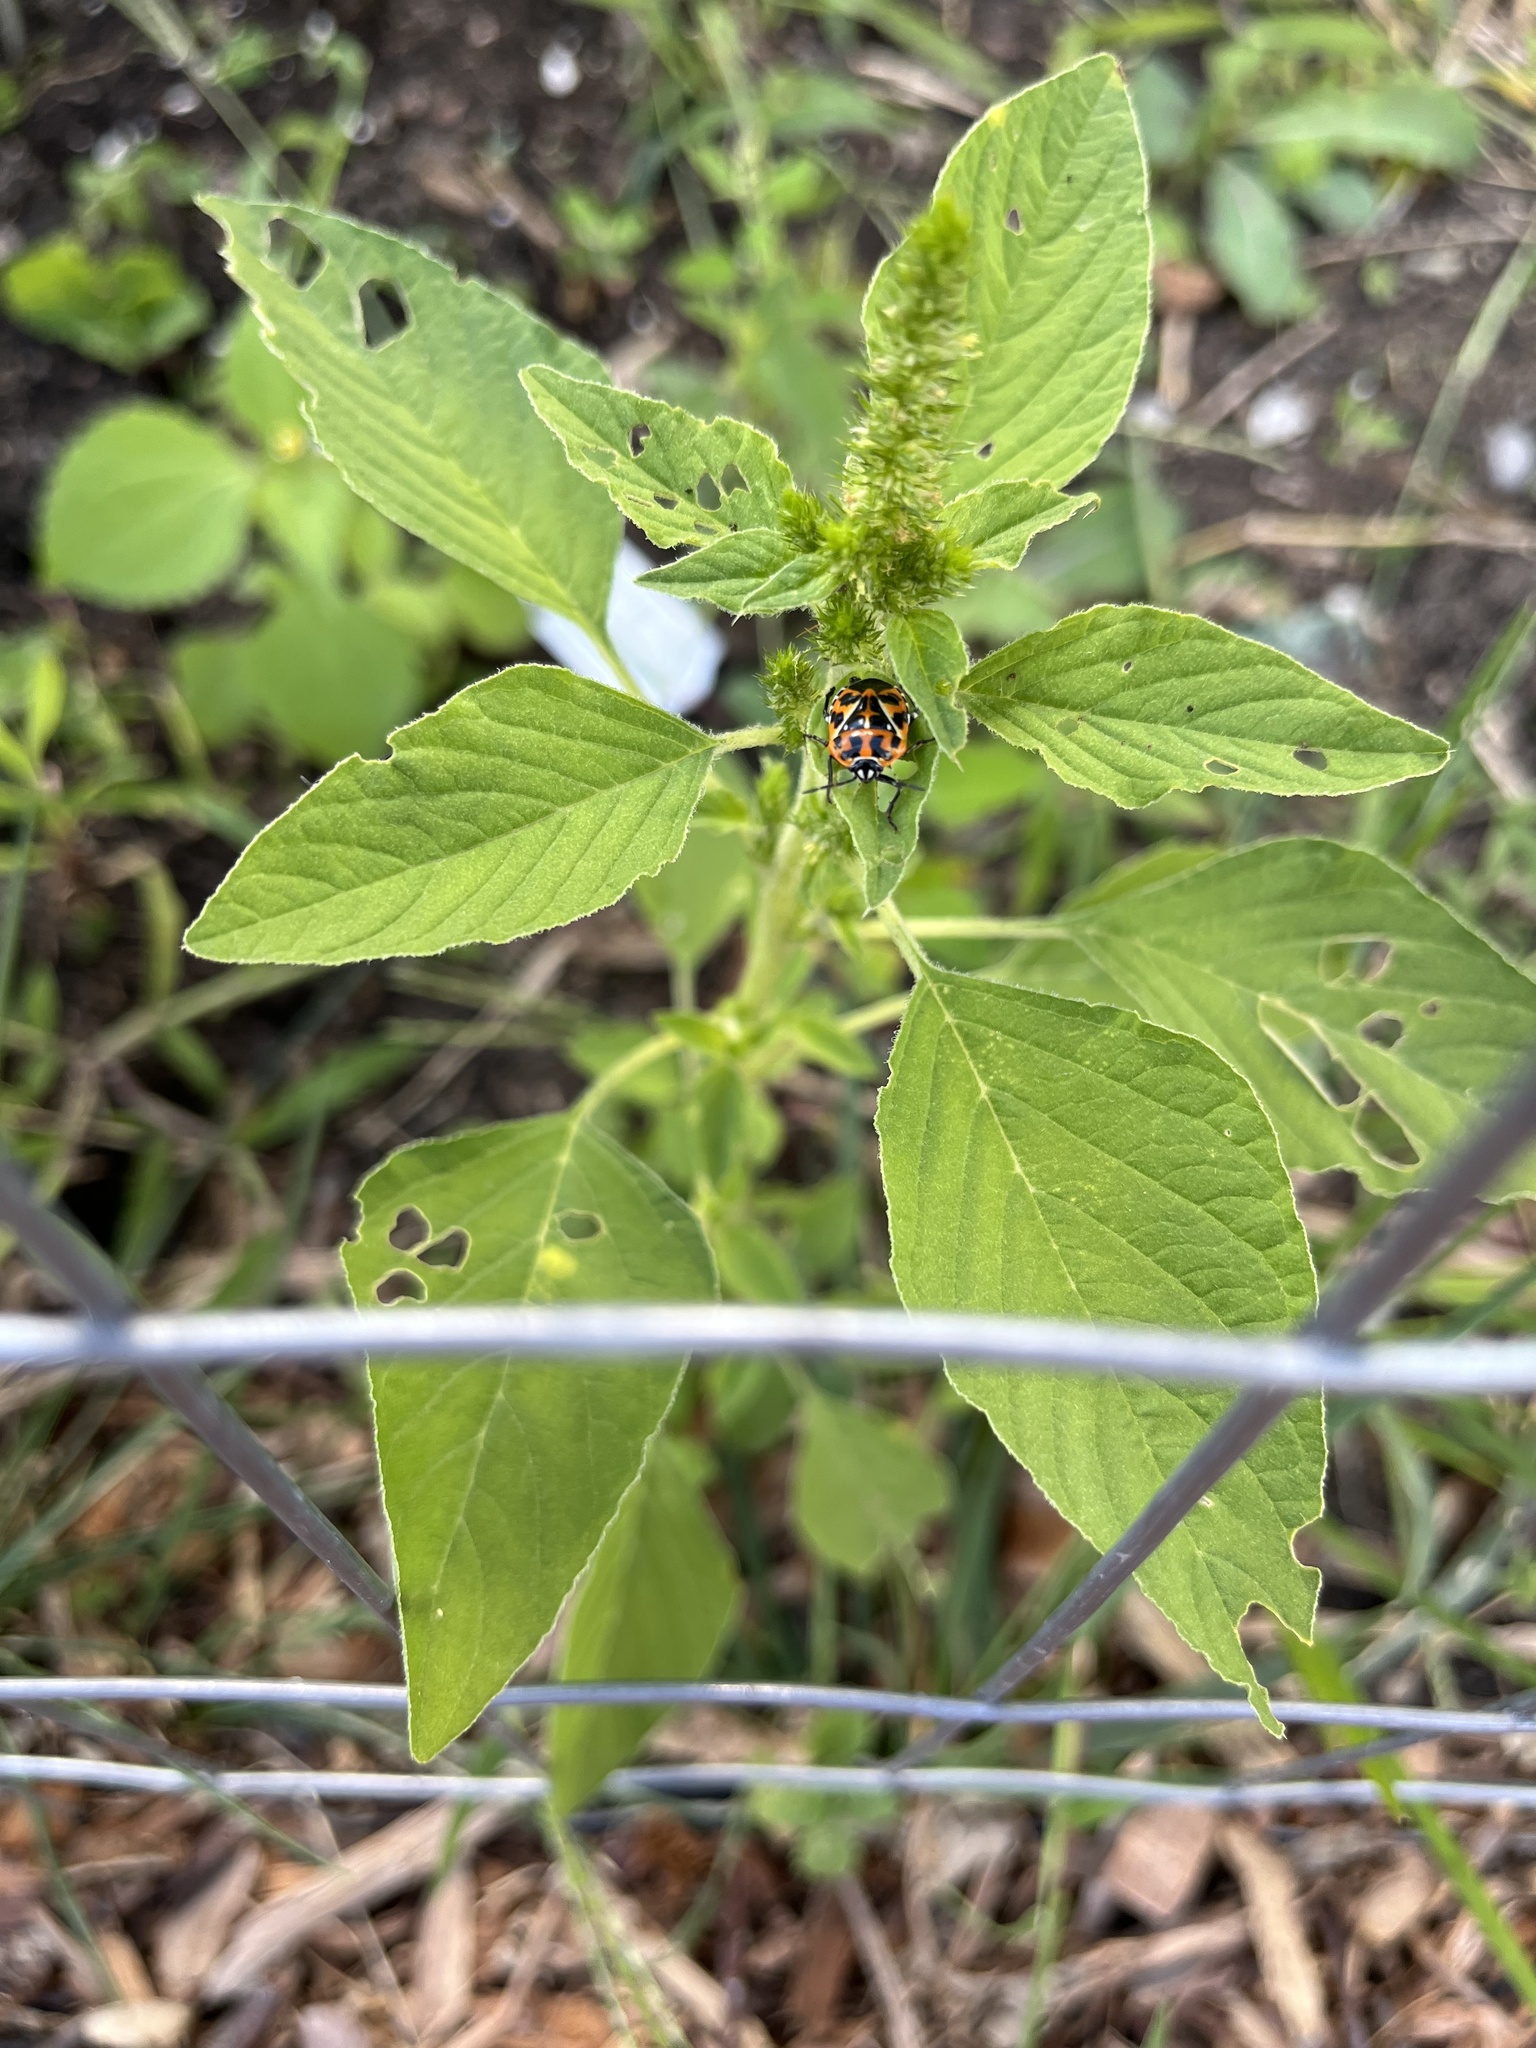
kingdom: Animalia
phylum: Arthropoda
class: Insecta
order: Hemiptera
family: Pentatomidae
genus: Murgantia
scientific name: Murgantia histrionica
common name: Harlequin bug
